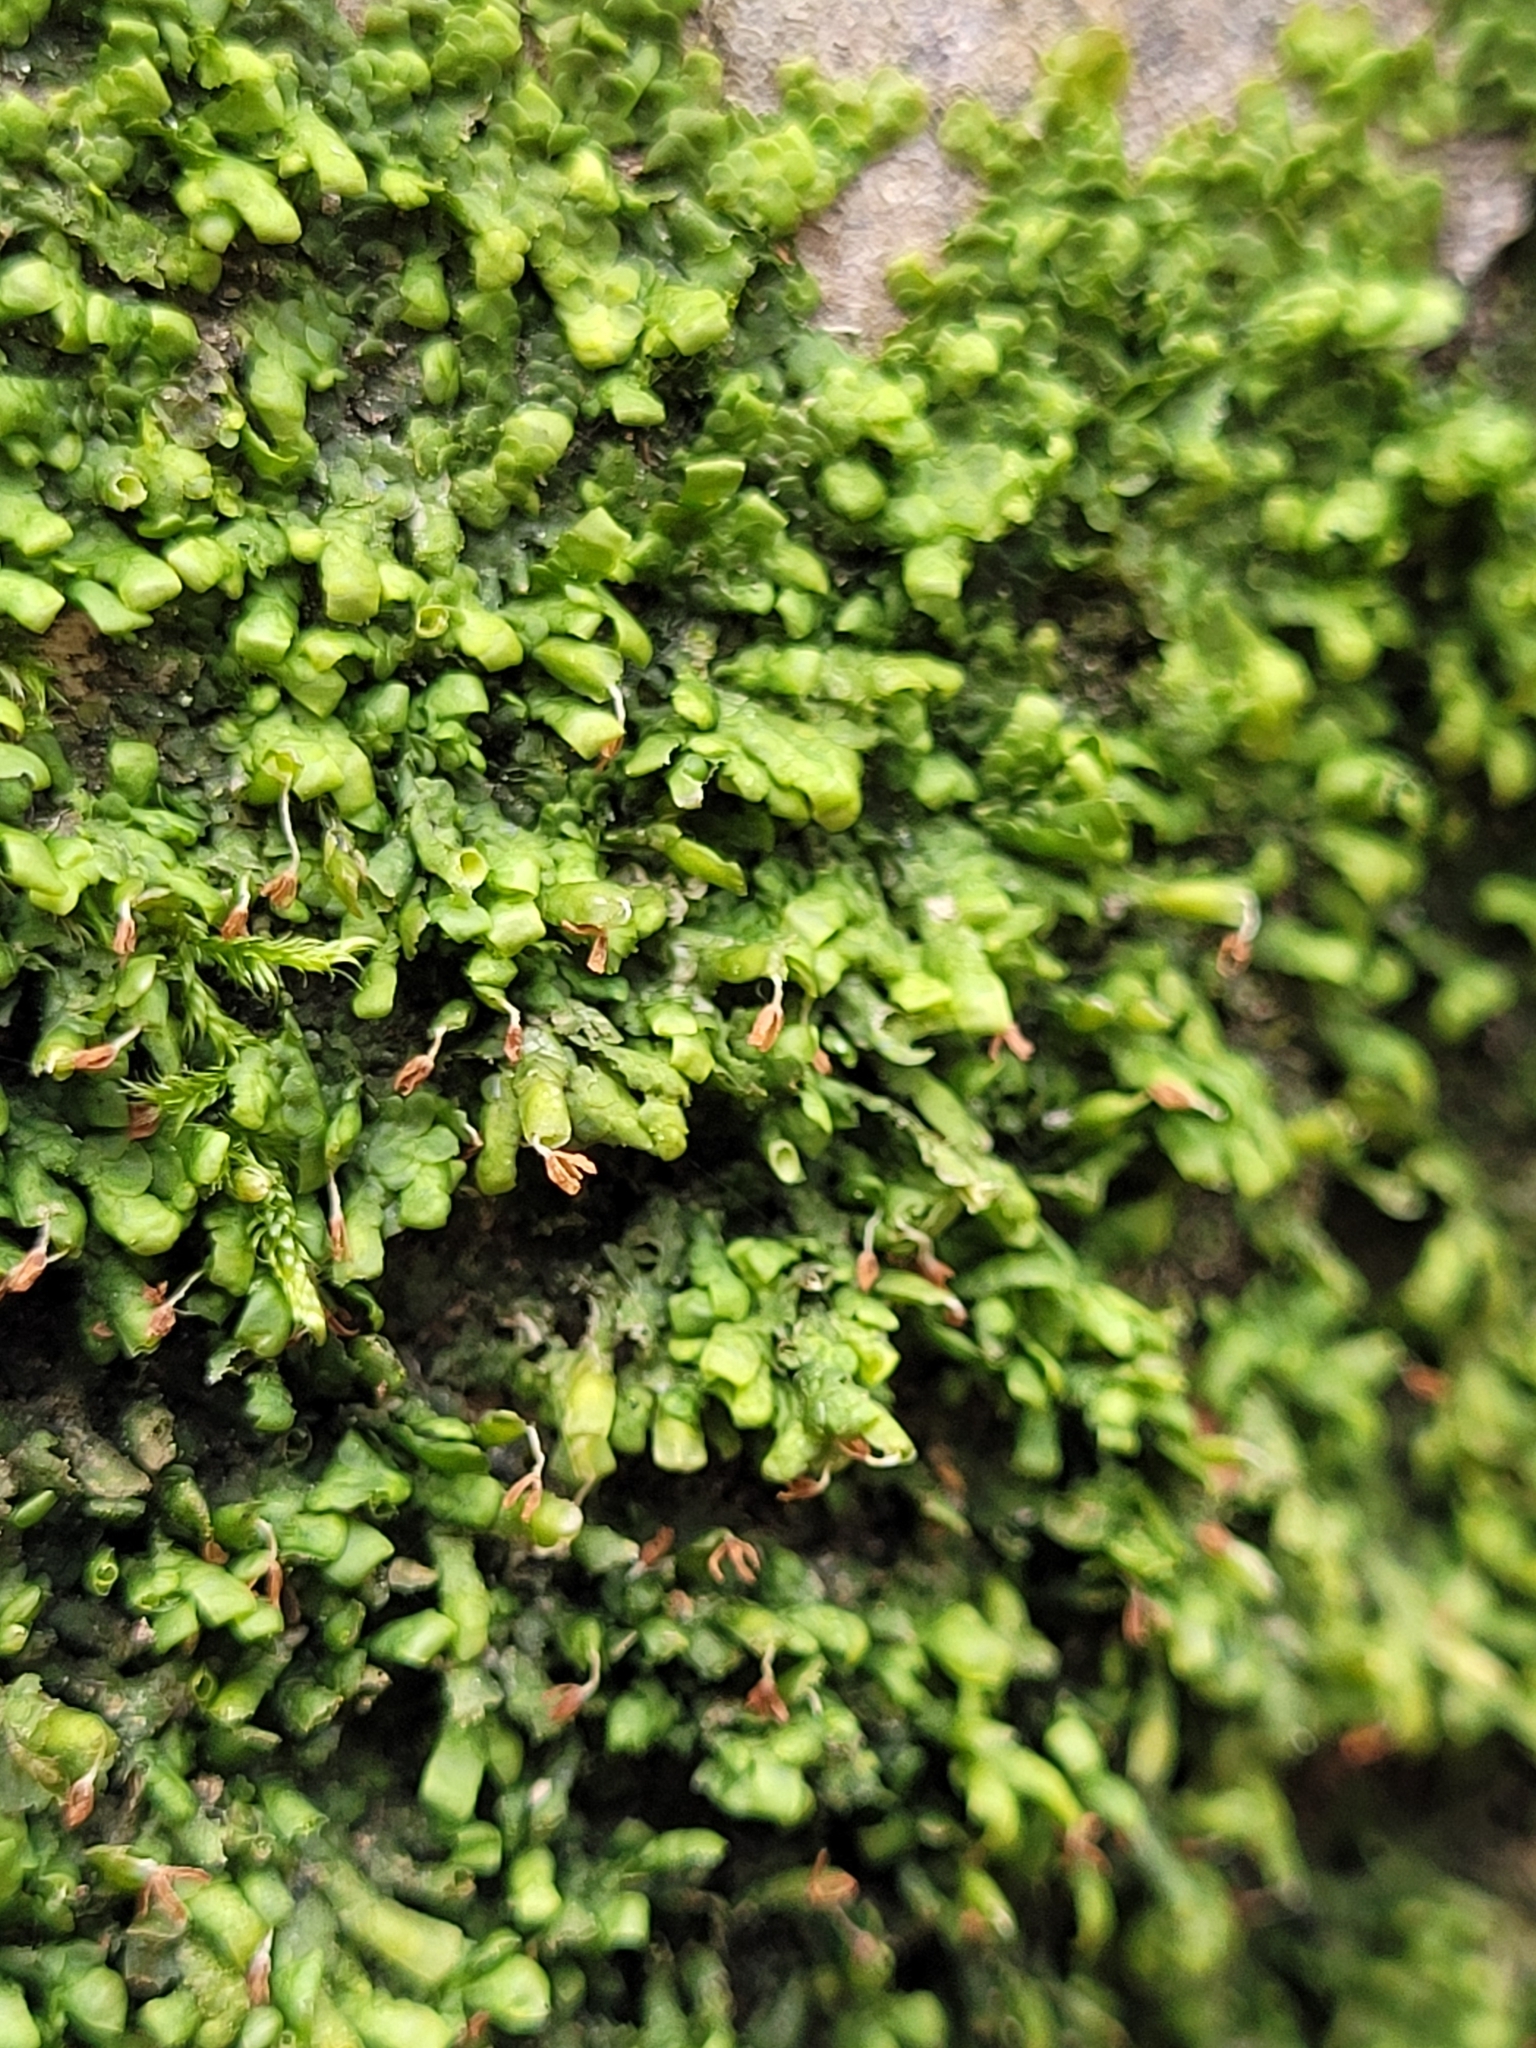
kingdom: Plantae
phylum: Marchantiophyta
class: Jungermanniopsida
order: Porellales
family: Radulaceae
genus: Radula
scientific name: Radula complanata
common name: Flat-leaved scalewort
